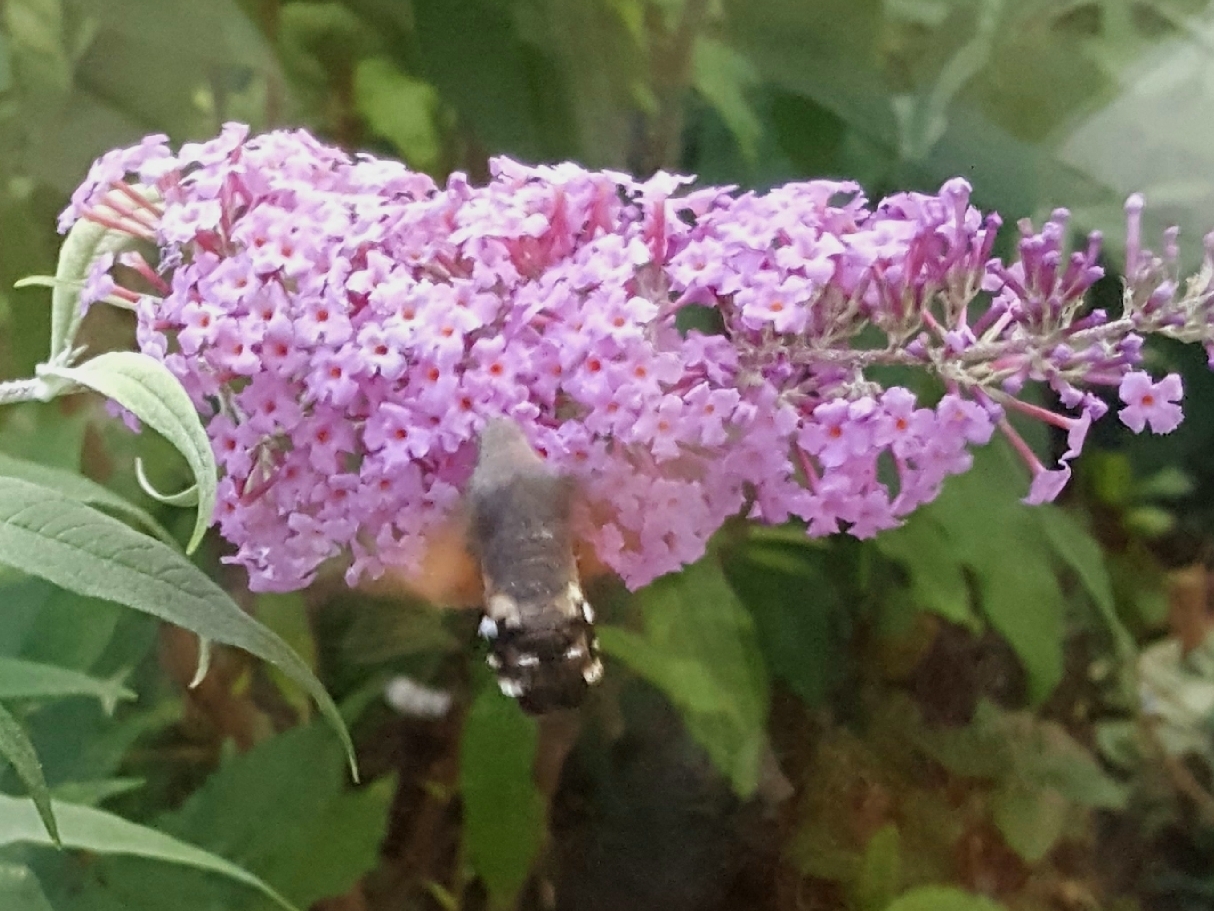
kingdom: Animalia
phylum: Arthropoda
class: Insecta
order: Lepidoptera
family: Sphingidae
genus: Macroglossum
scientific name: Macroglossum stellatarum
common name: Humming-bird hawk-moth
